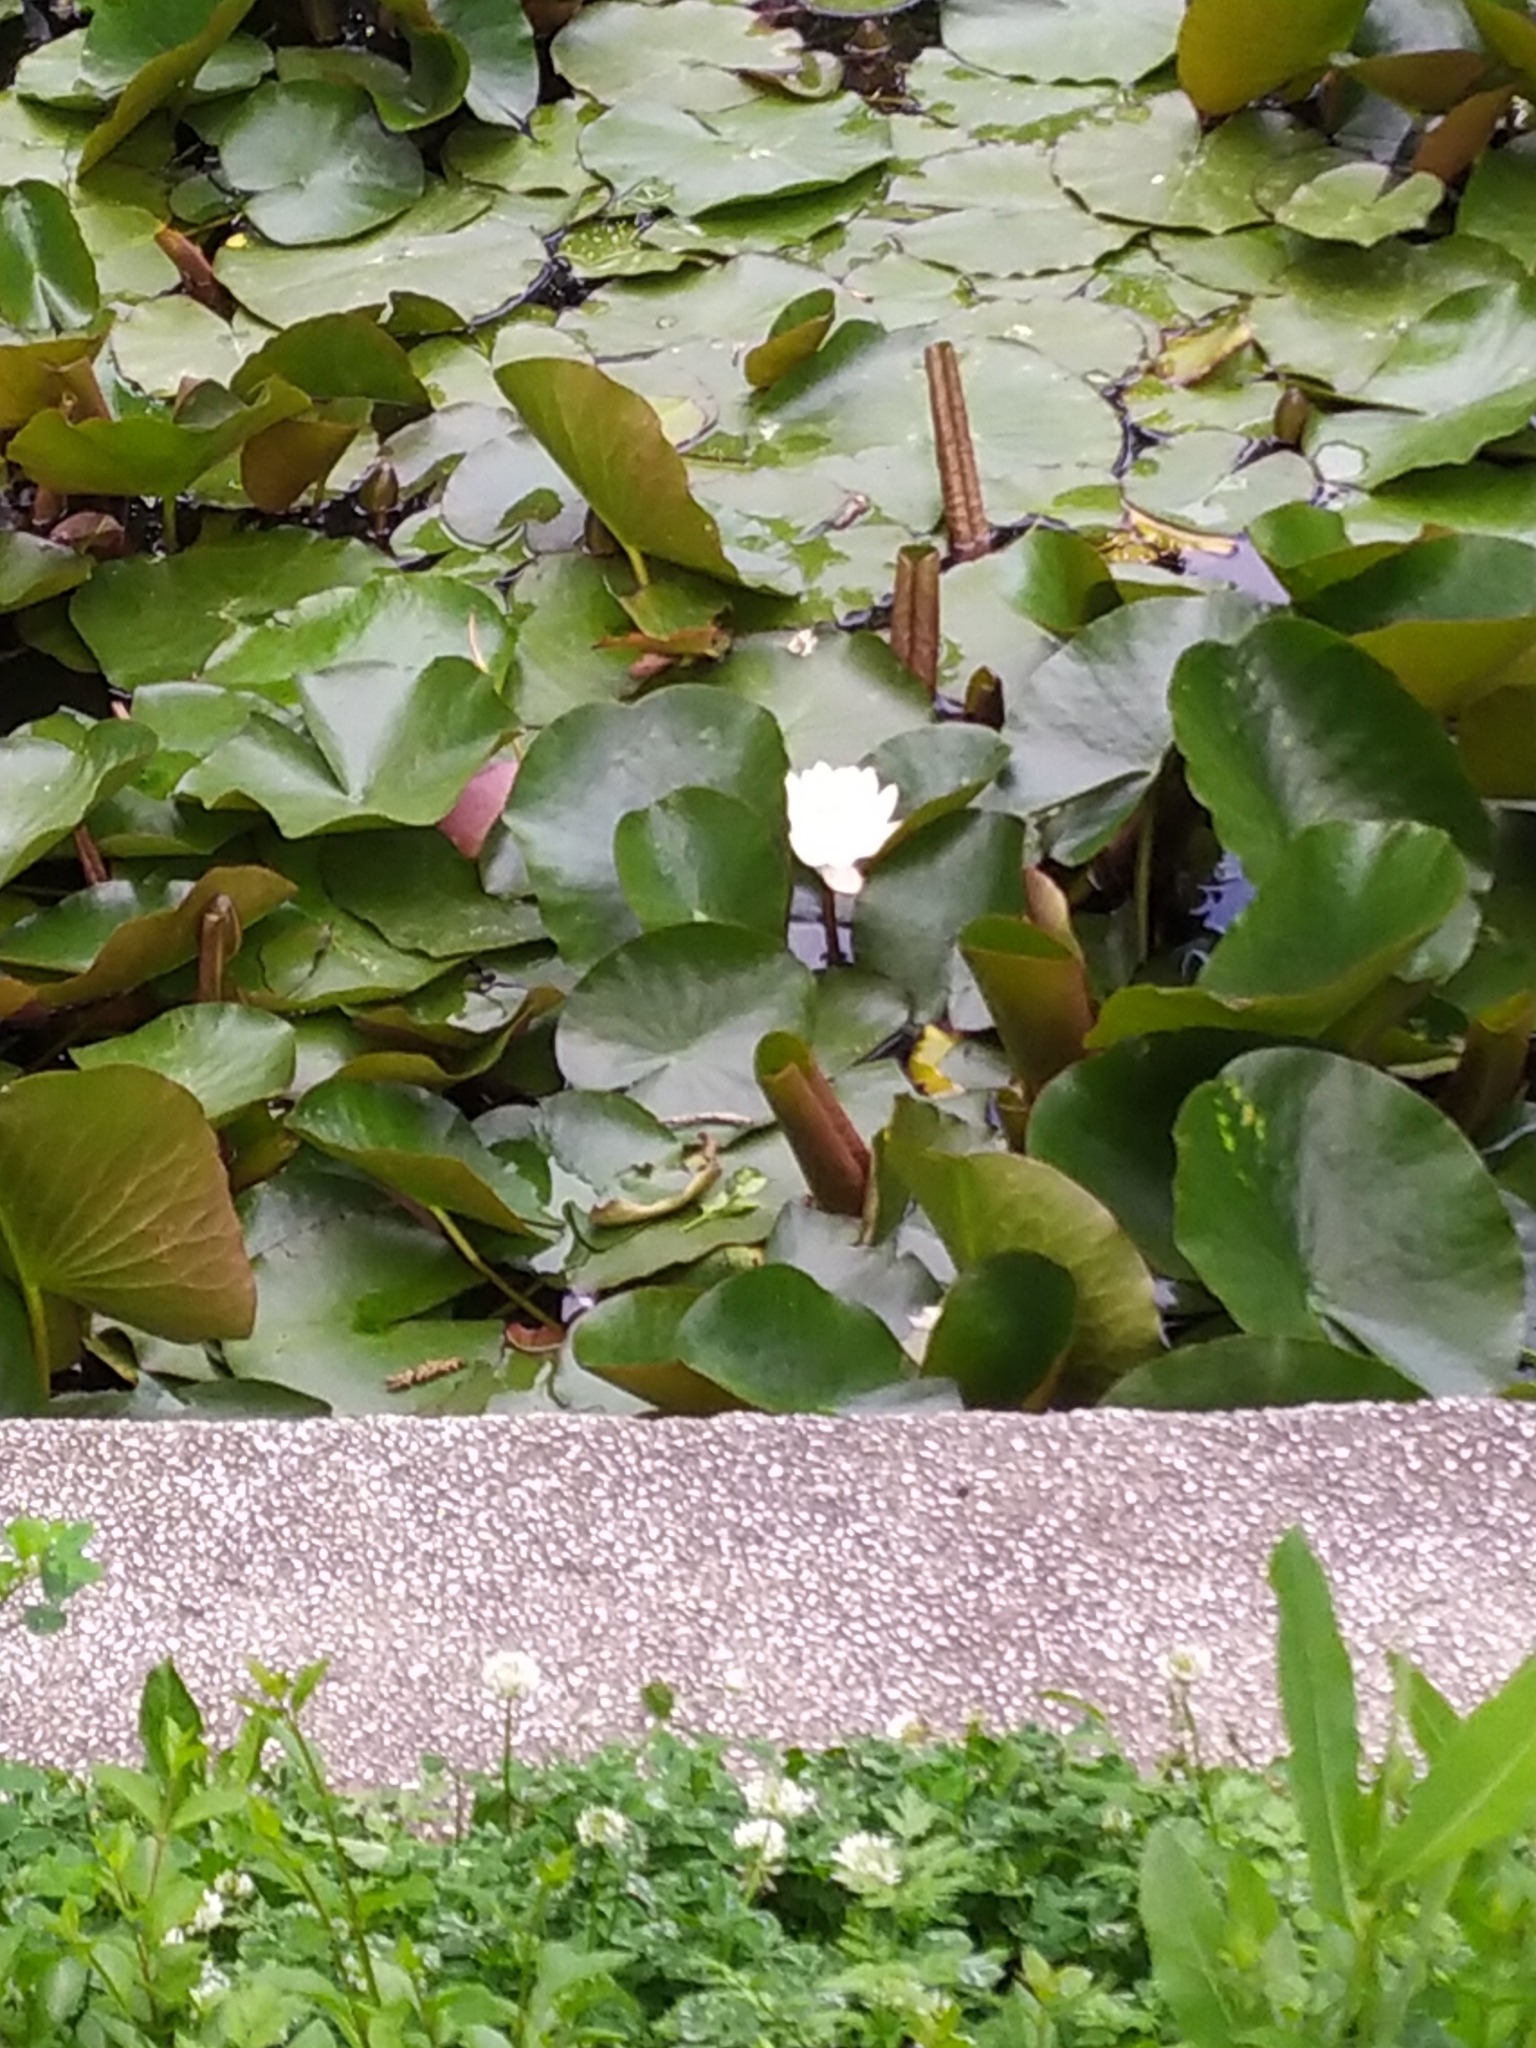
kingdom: Plantae
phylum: Tracheophyta
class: Magnoliopsida
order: Nymphaeales
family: Nymphaeaceae
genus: Nymphaea
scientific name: Nymphaea alba
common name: White water-lily
